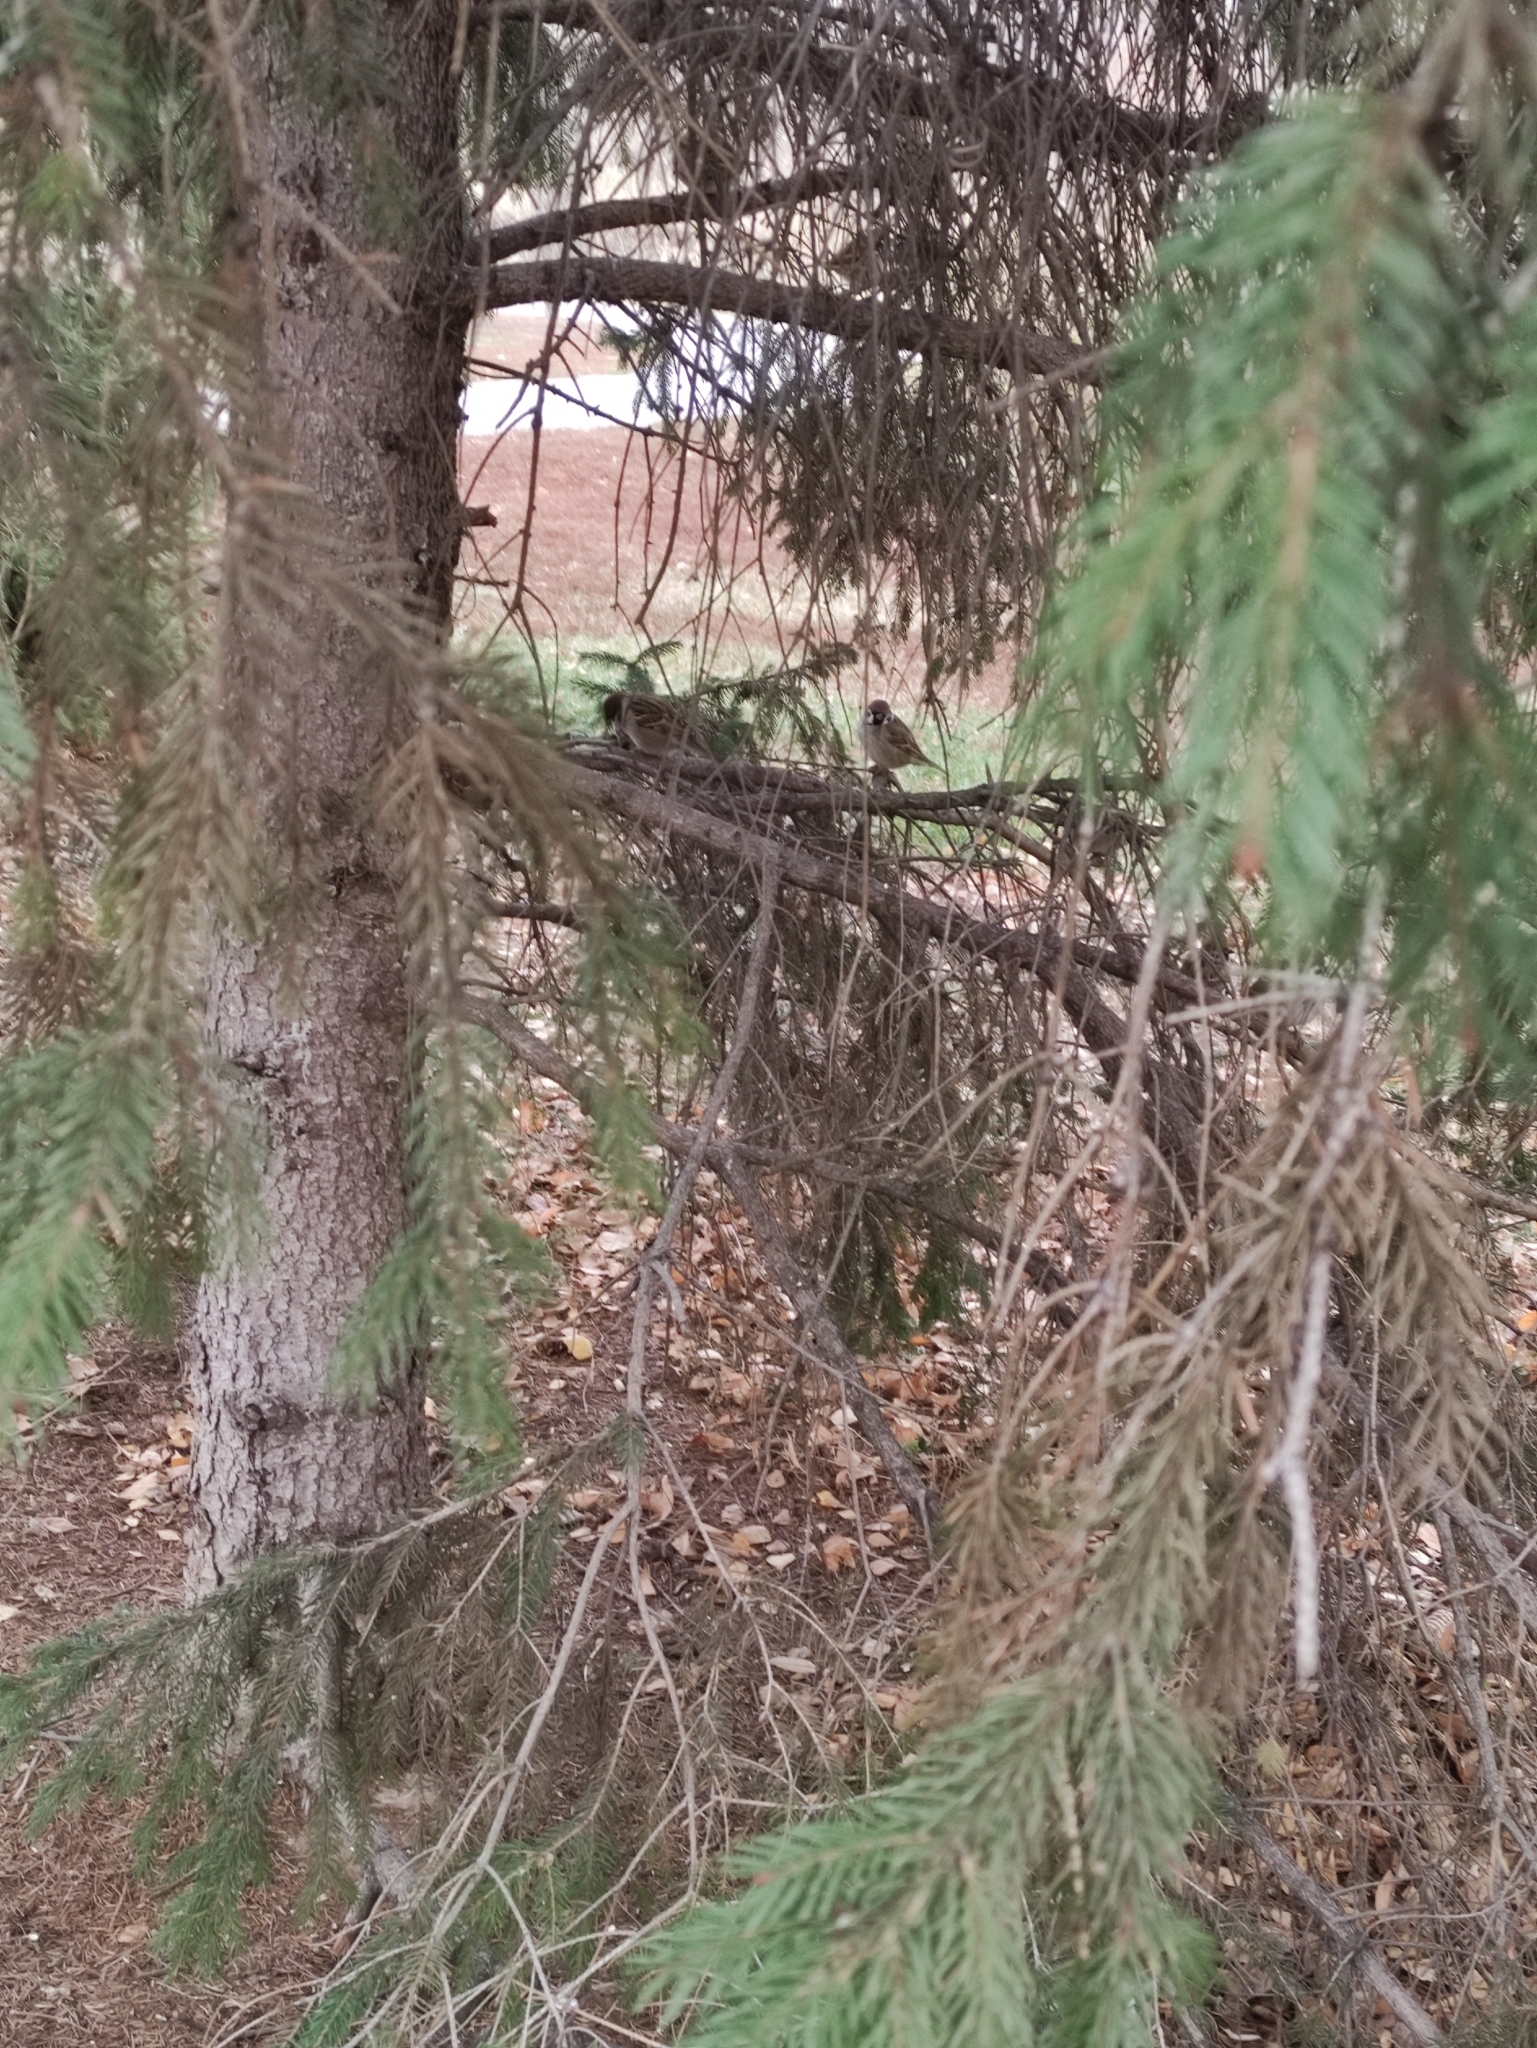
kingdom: Animalia
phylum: Chordata
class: Aves
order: Passeriformes
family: Passeridae
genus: Passer
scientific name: Passer montanus
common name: Eurasian tree sparrow
